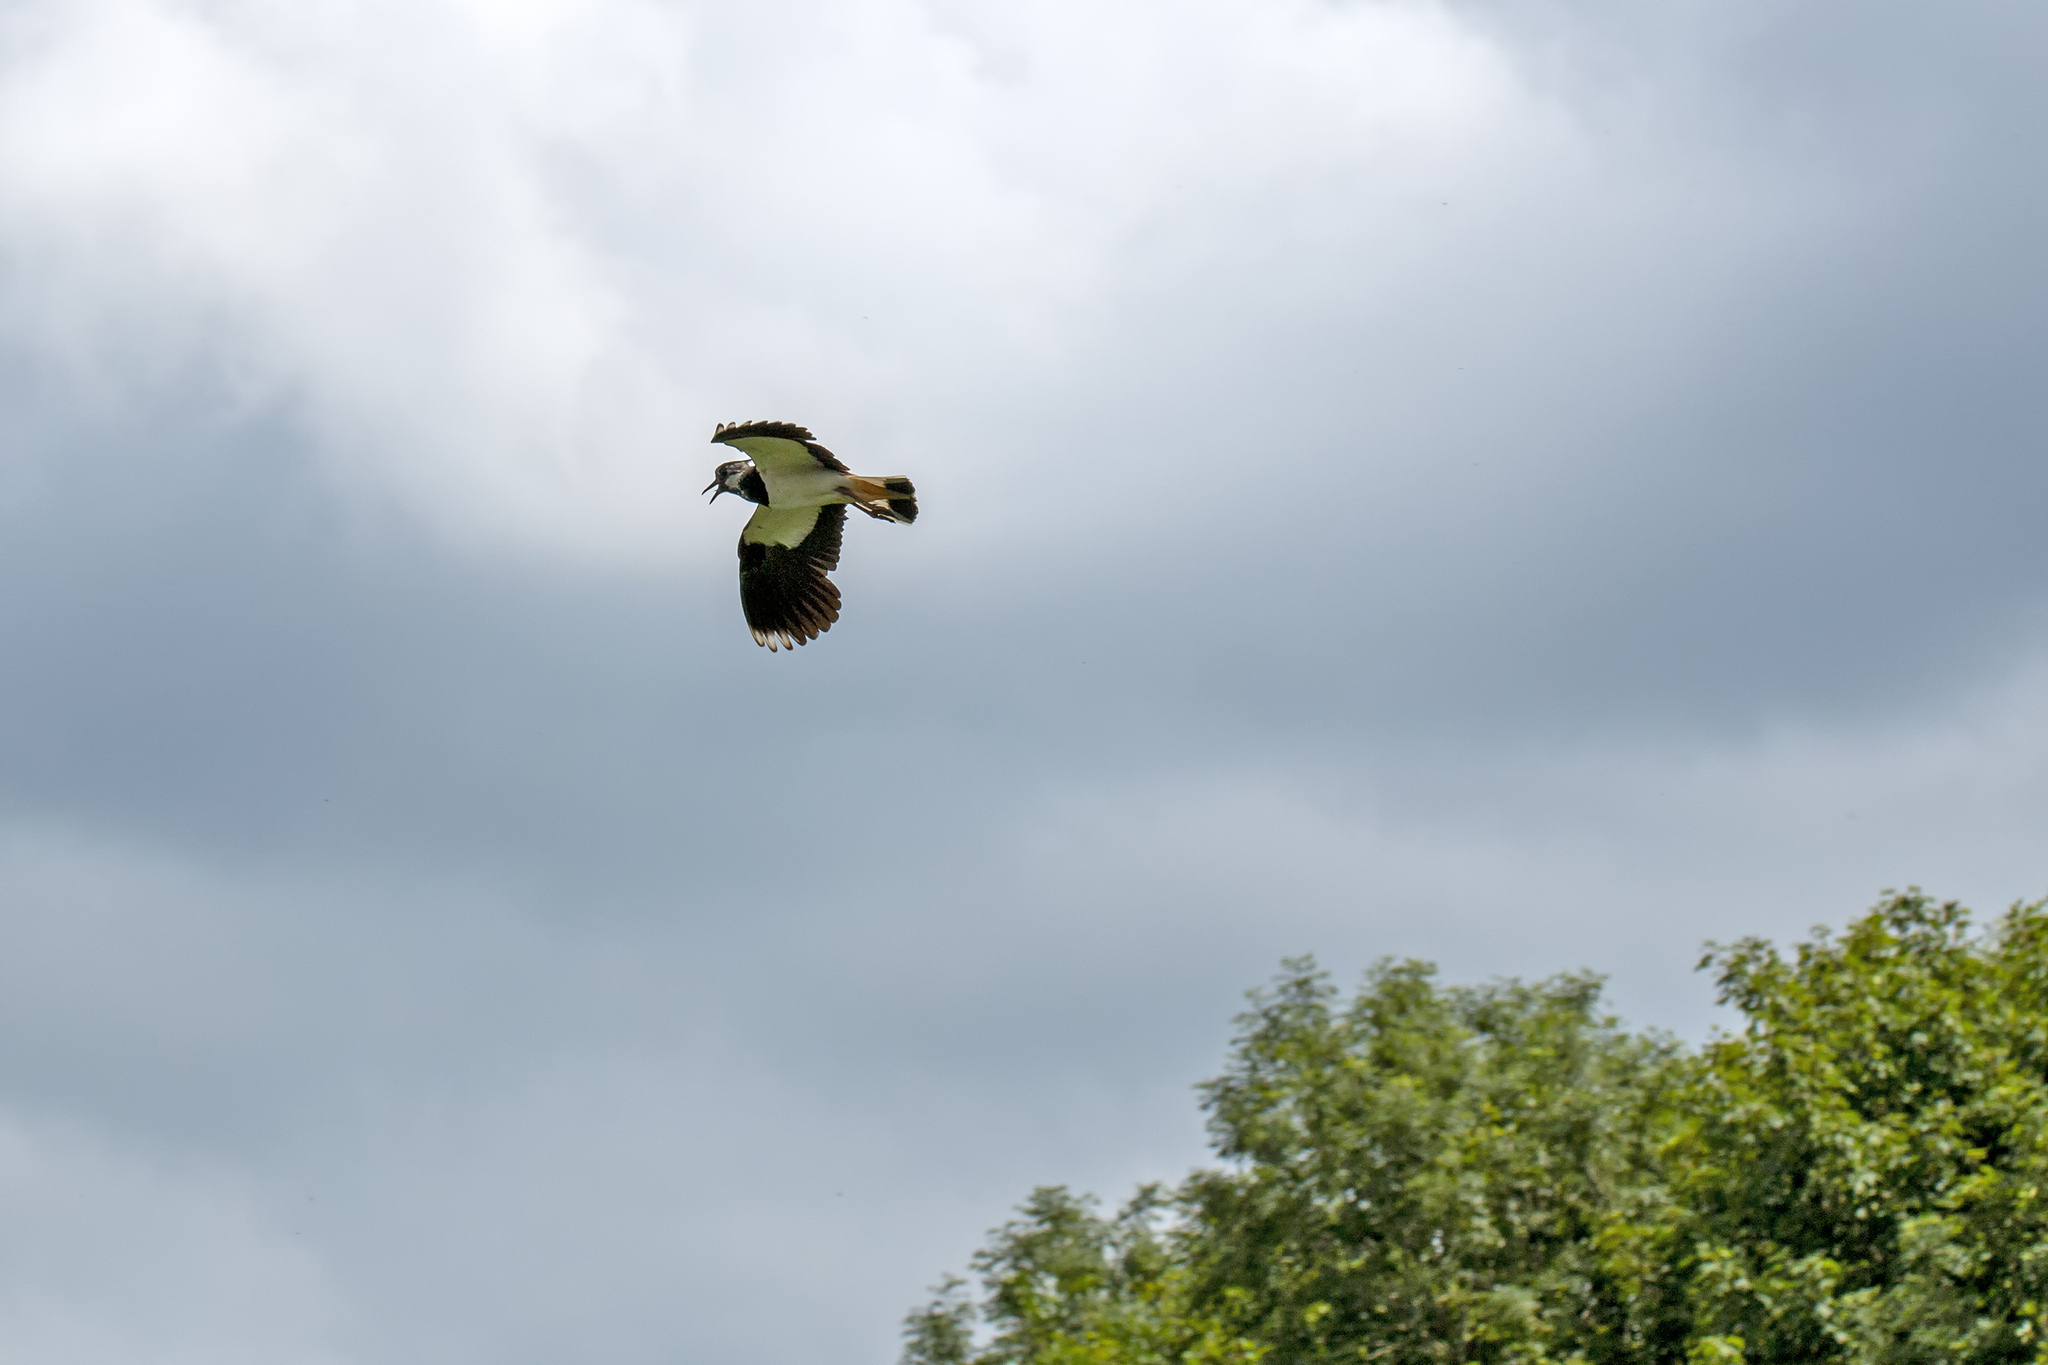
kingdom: Animalia
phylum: Chordata
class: Aves
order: Charadriiformes
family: Charadriidae
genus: Vanellus
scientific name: Vanellus vanellus
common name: Northern lapwing
